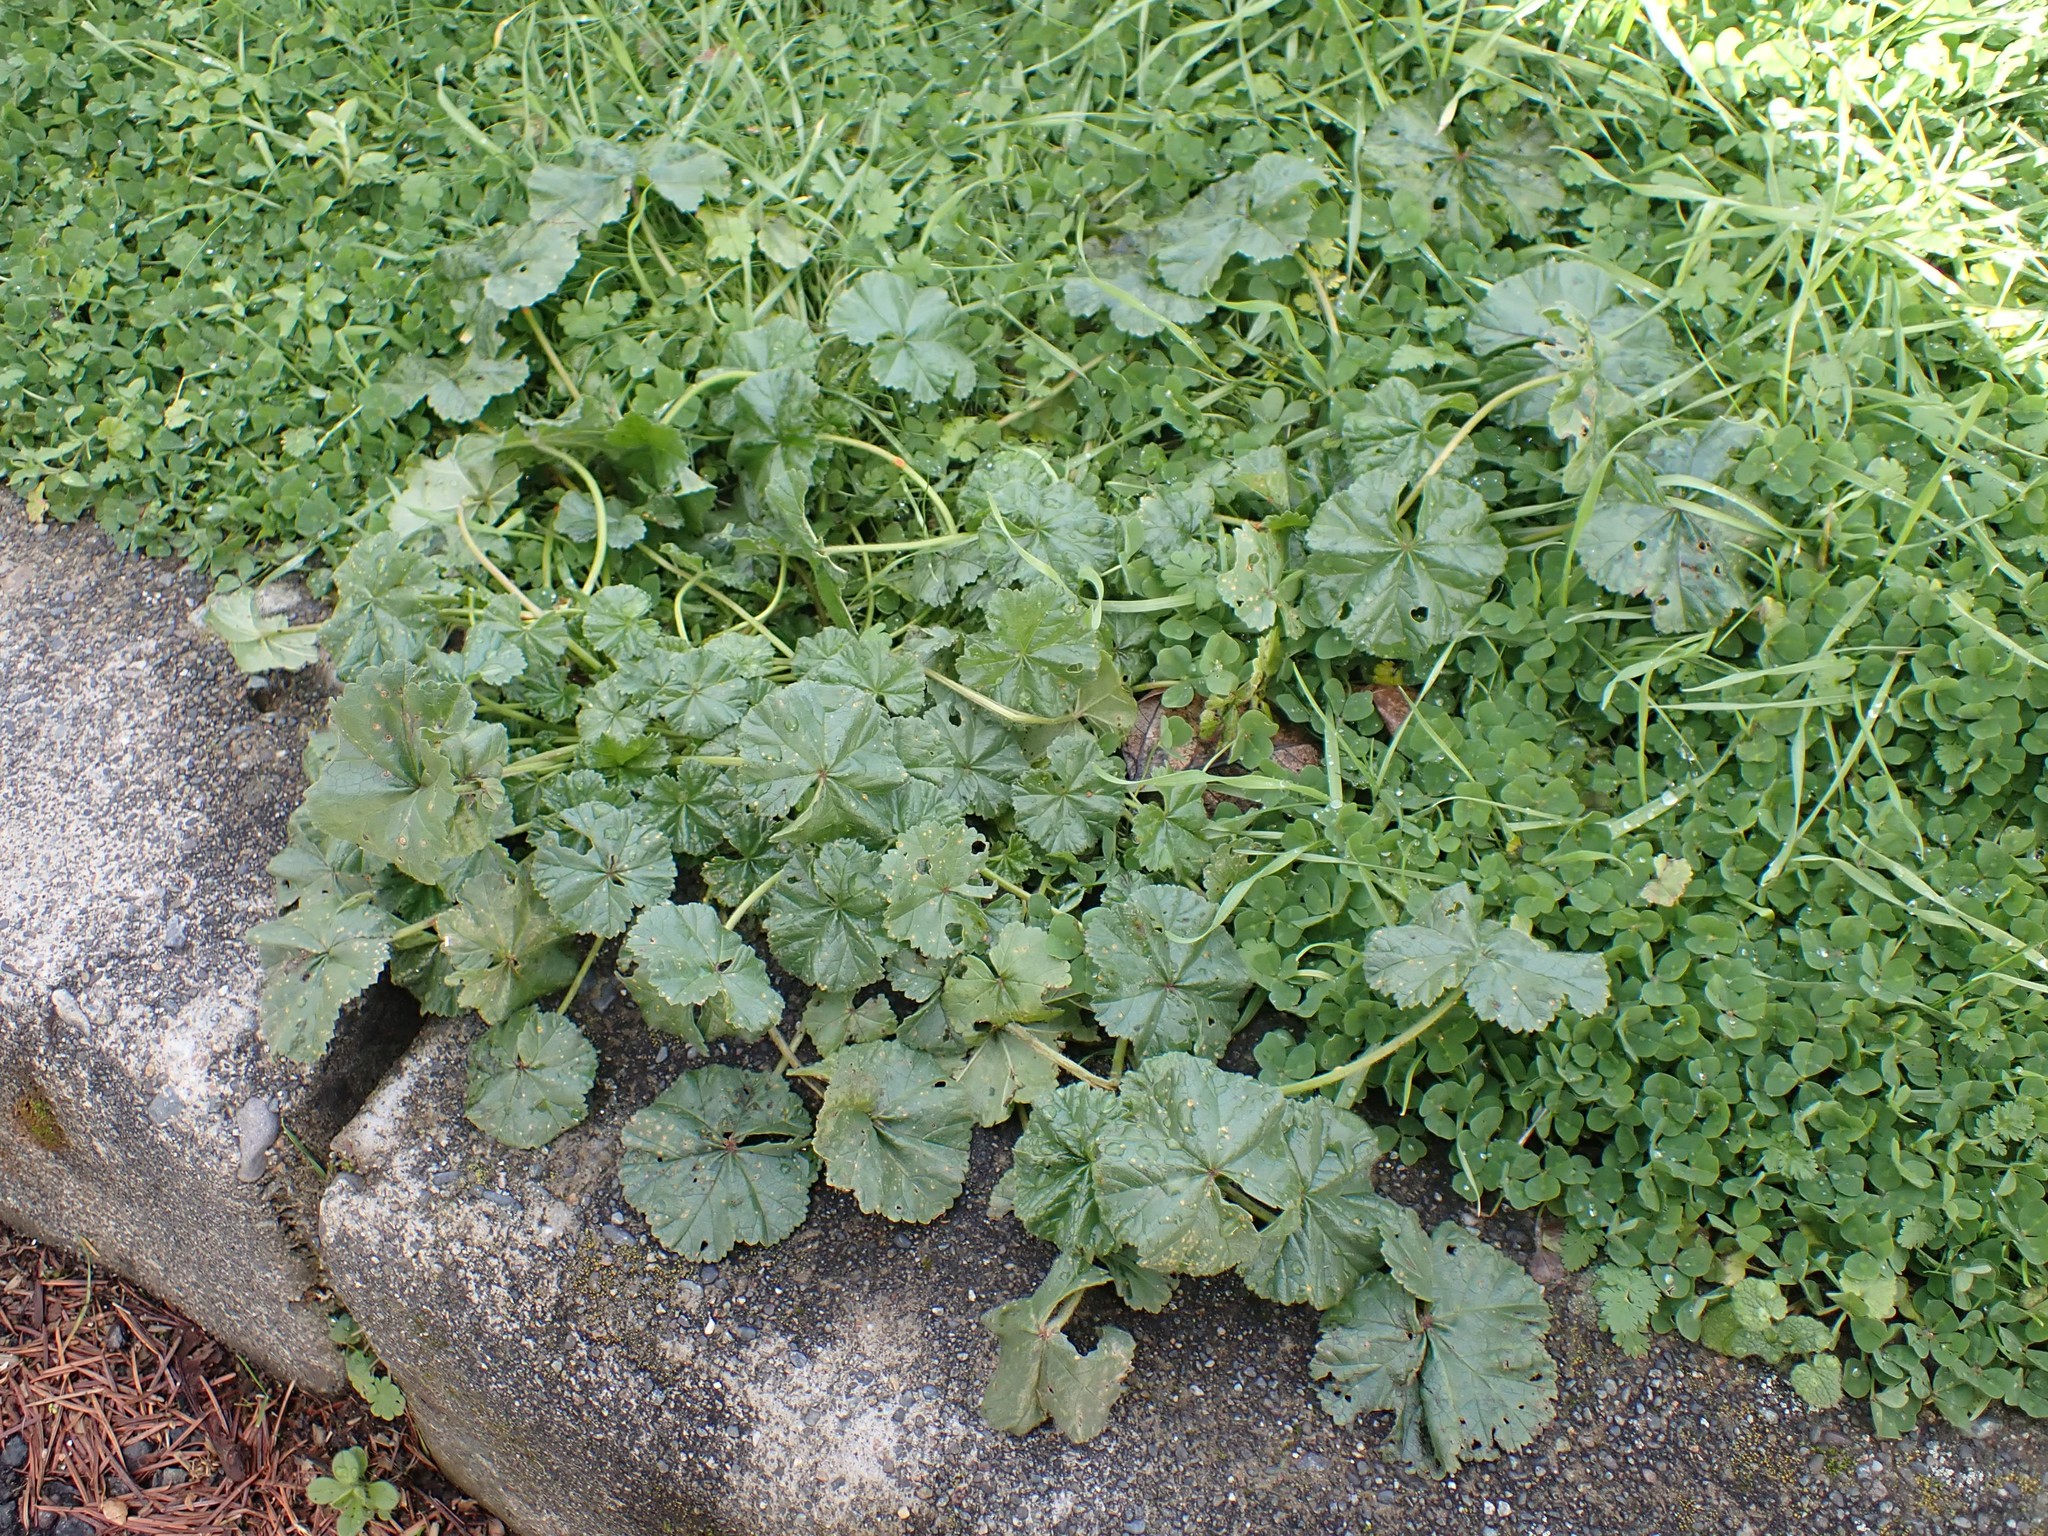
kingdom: Plantae
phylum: Tracheophyta
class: Magnoliopsida
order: Malvales
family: Malvaceae
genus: Malva
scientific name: Malva neglecta
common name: Common mallow
